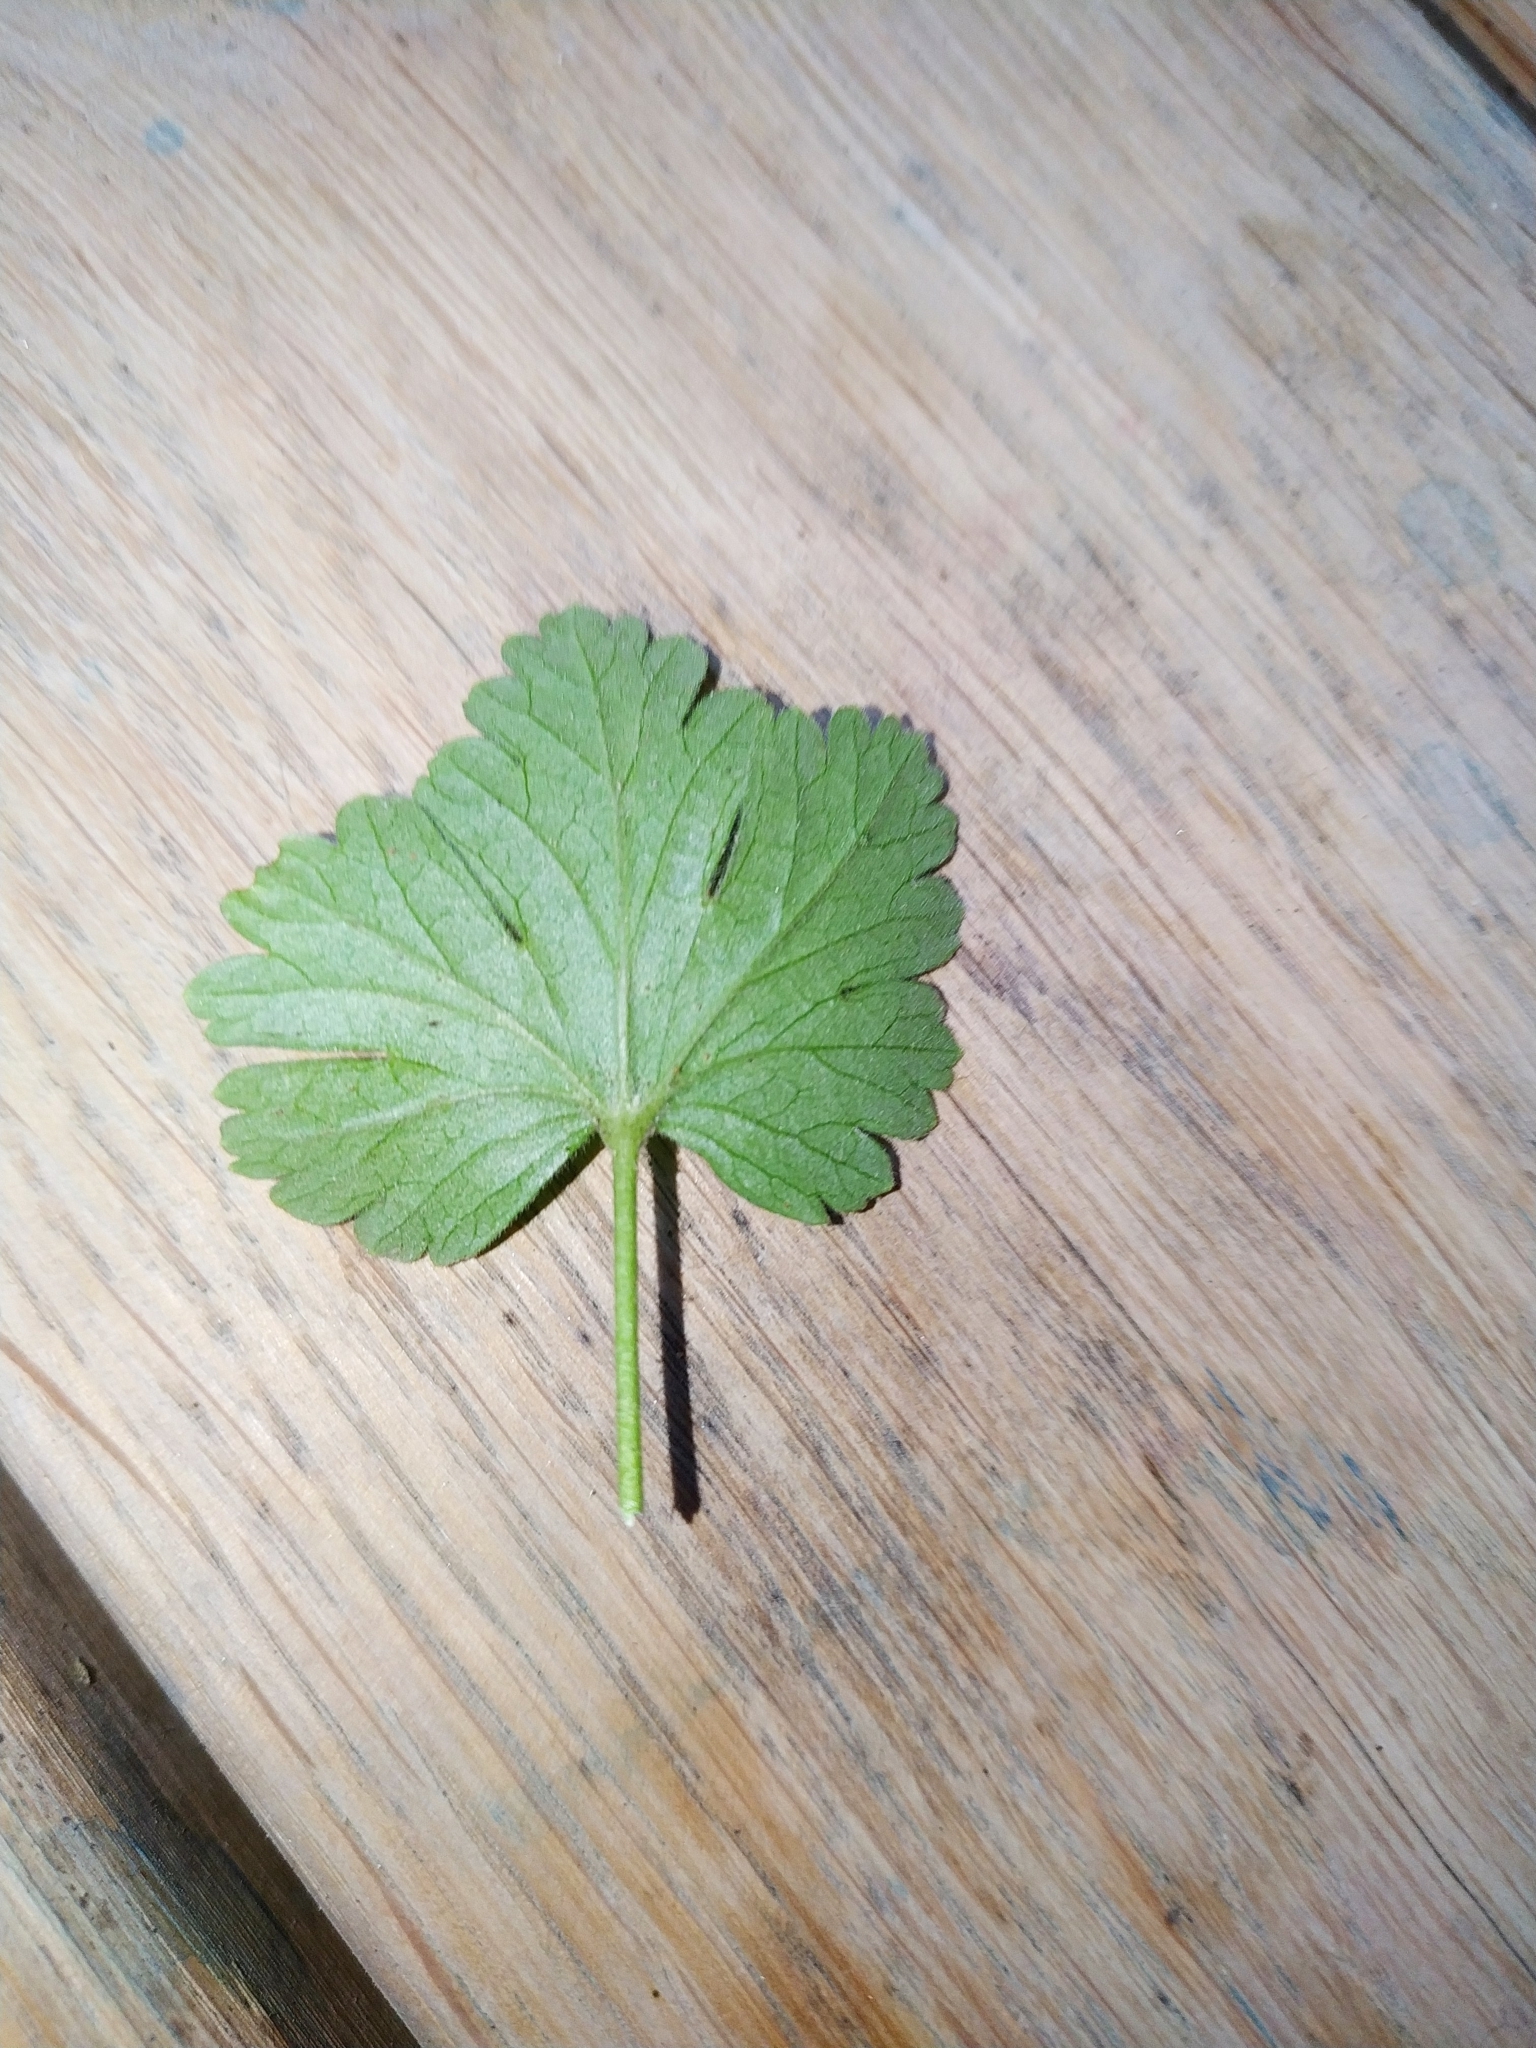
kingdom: Plantae
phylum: Tracheophyta
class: Magnoliopsida
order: Saxifragales
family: Grossulariaceae
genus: Ribes
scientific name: Ribes alpinum
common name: Alpine currant
